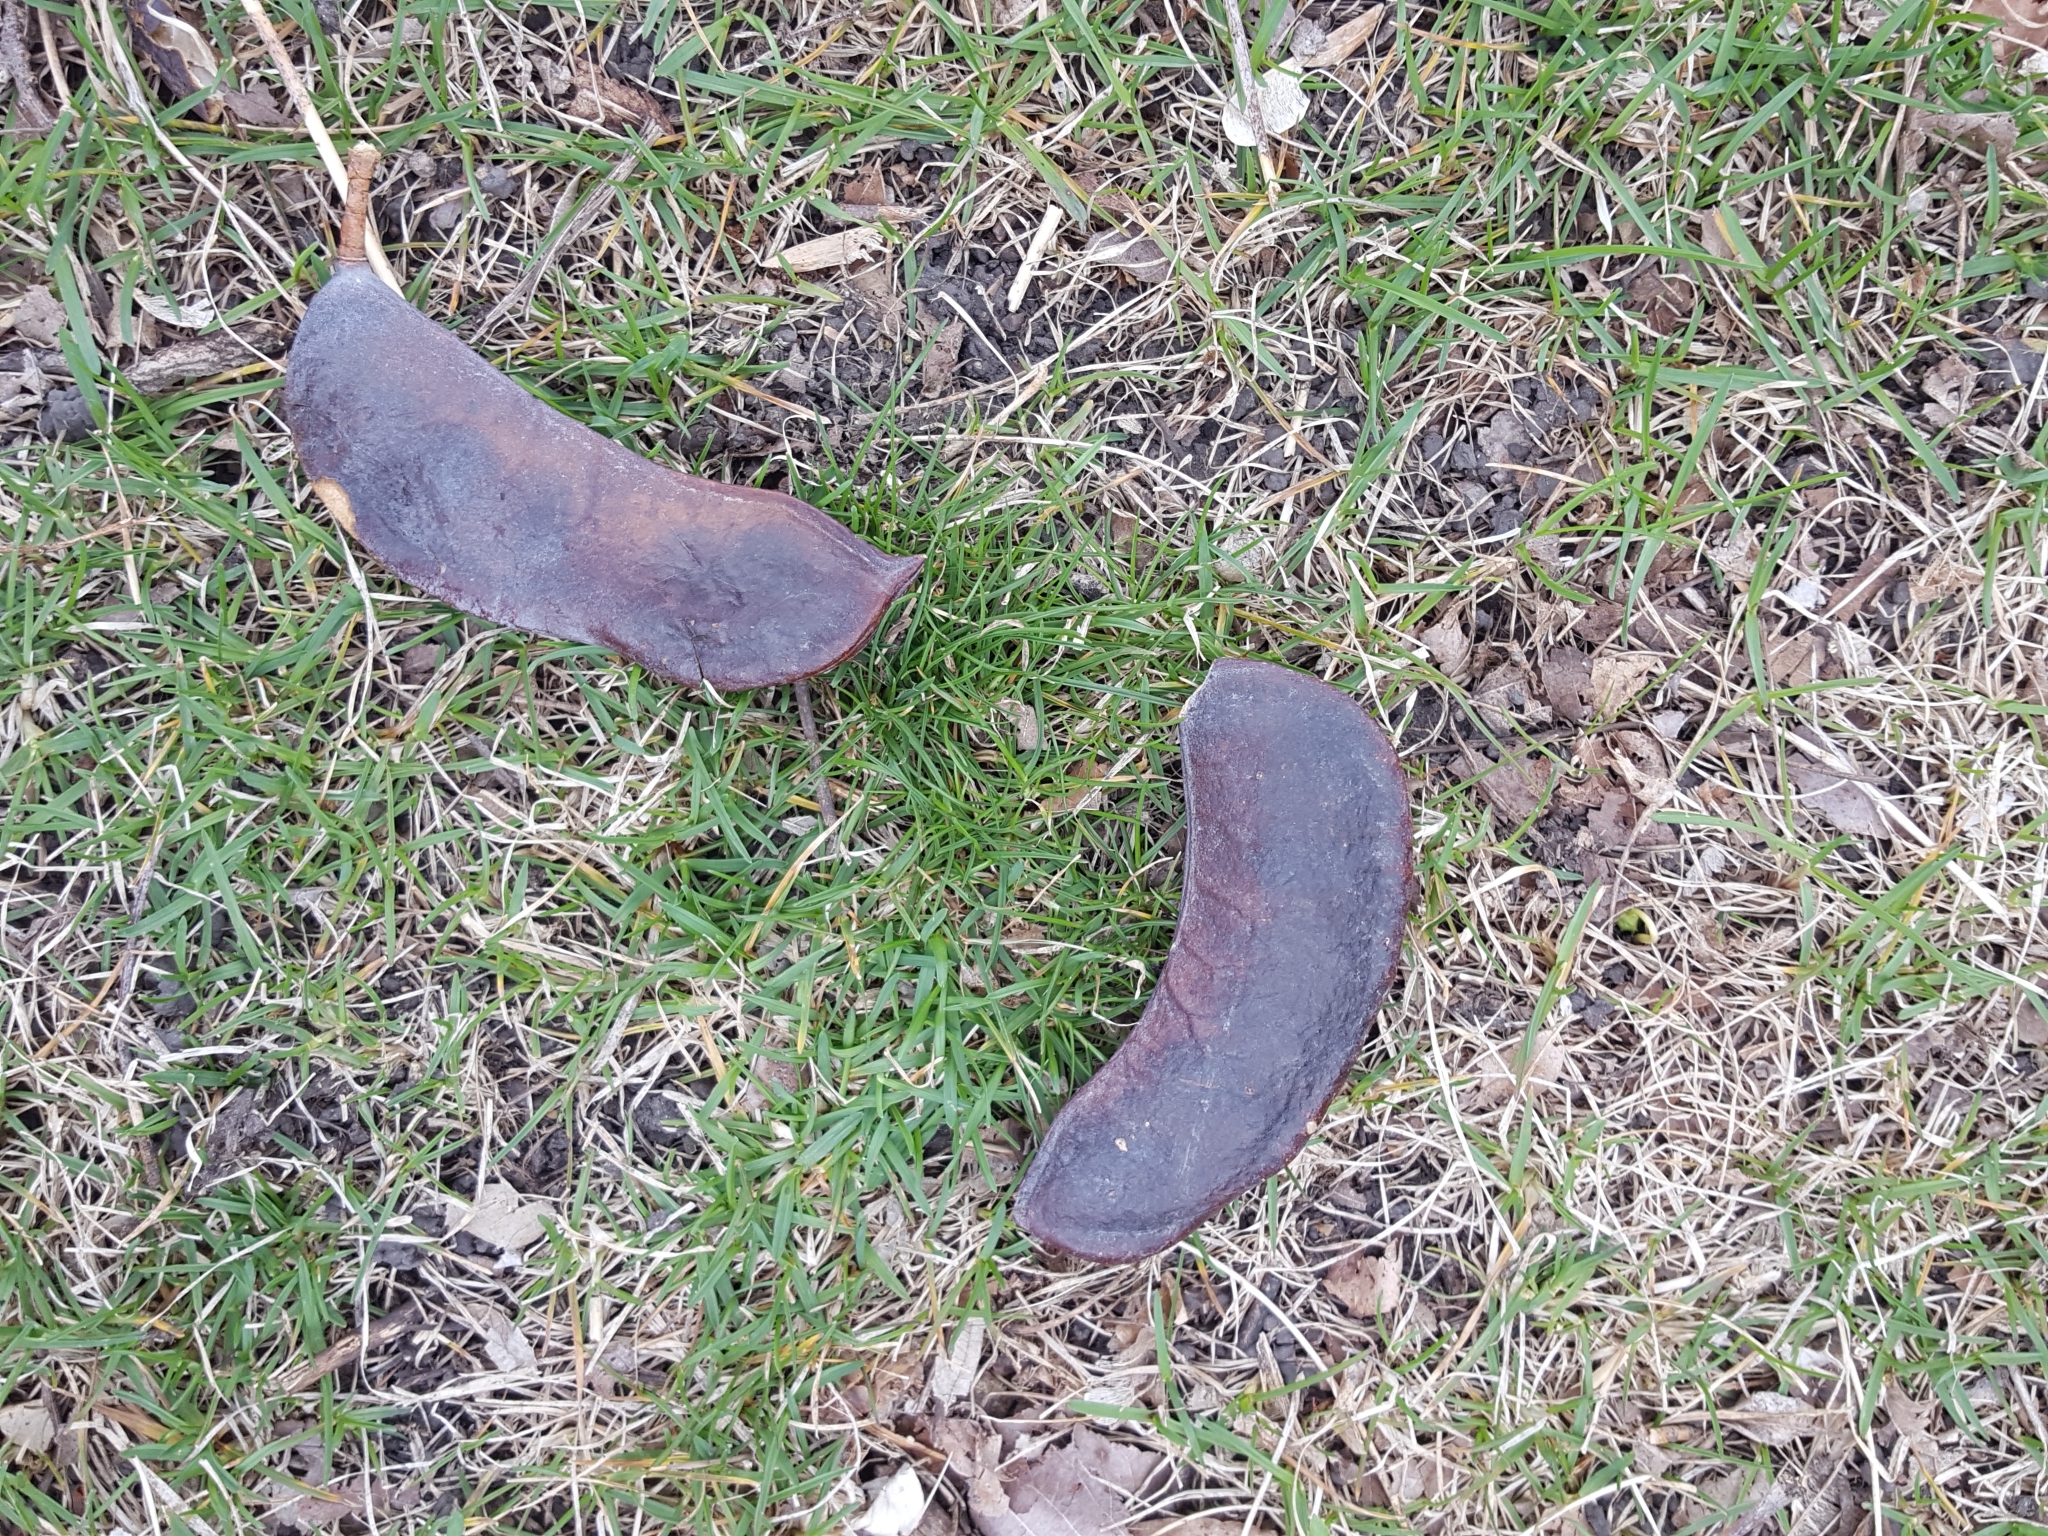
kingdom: Plantae
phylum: Tracheophyta
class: Magnoliopsida
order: Fabales
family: Fabaceae
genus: Gymnocladus
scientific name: Gymnocladus dioicus
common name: Kentucky coffee-tree
